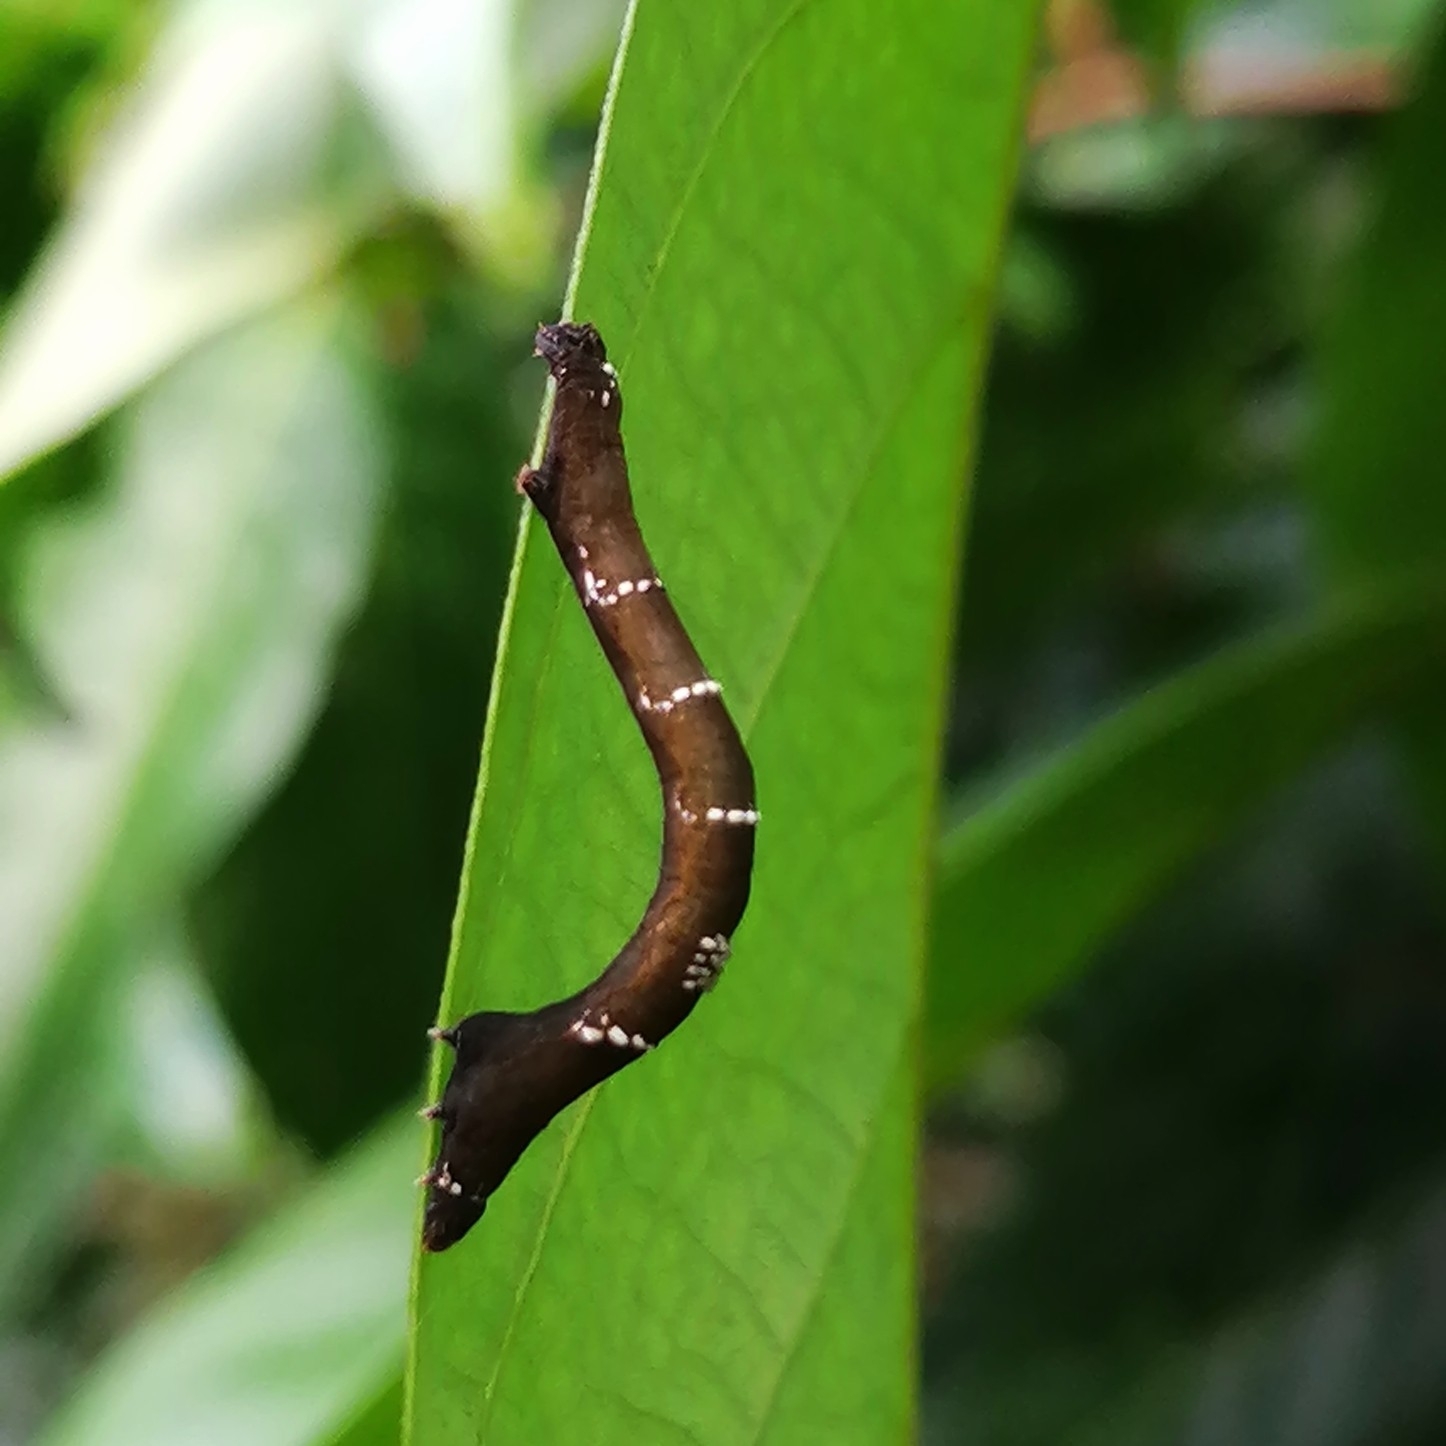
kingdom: Animalia
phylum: Arthropoda
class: Insecta
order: Lepidoptera
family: Geometridae
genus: Hyposidra
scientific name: Hyposidra talaca
